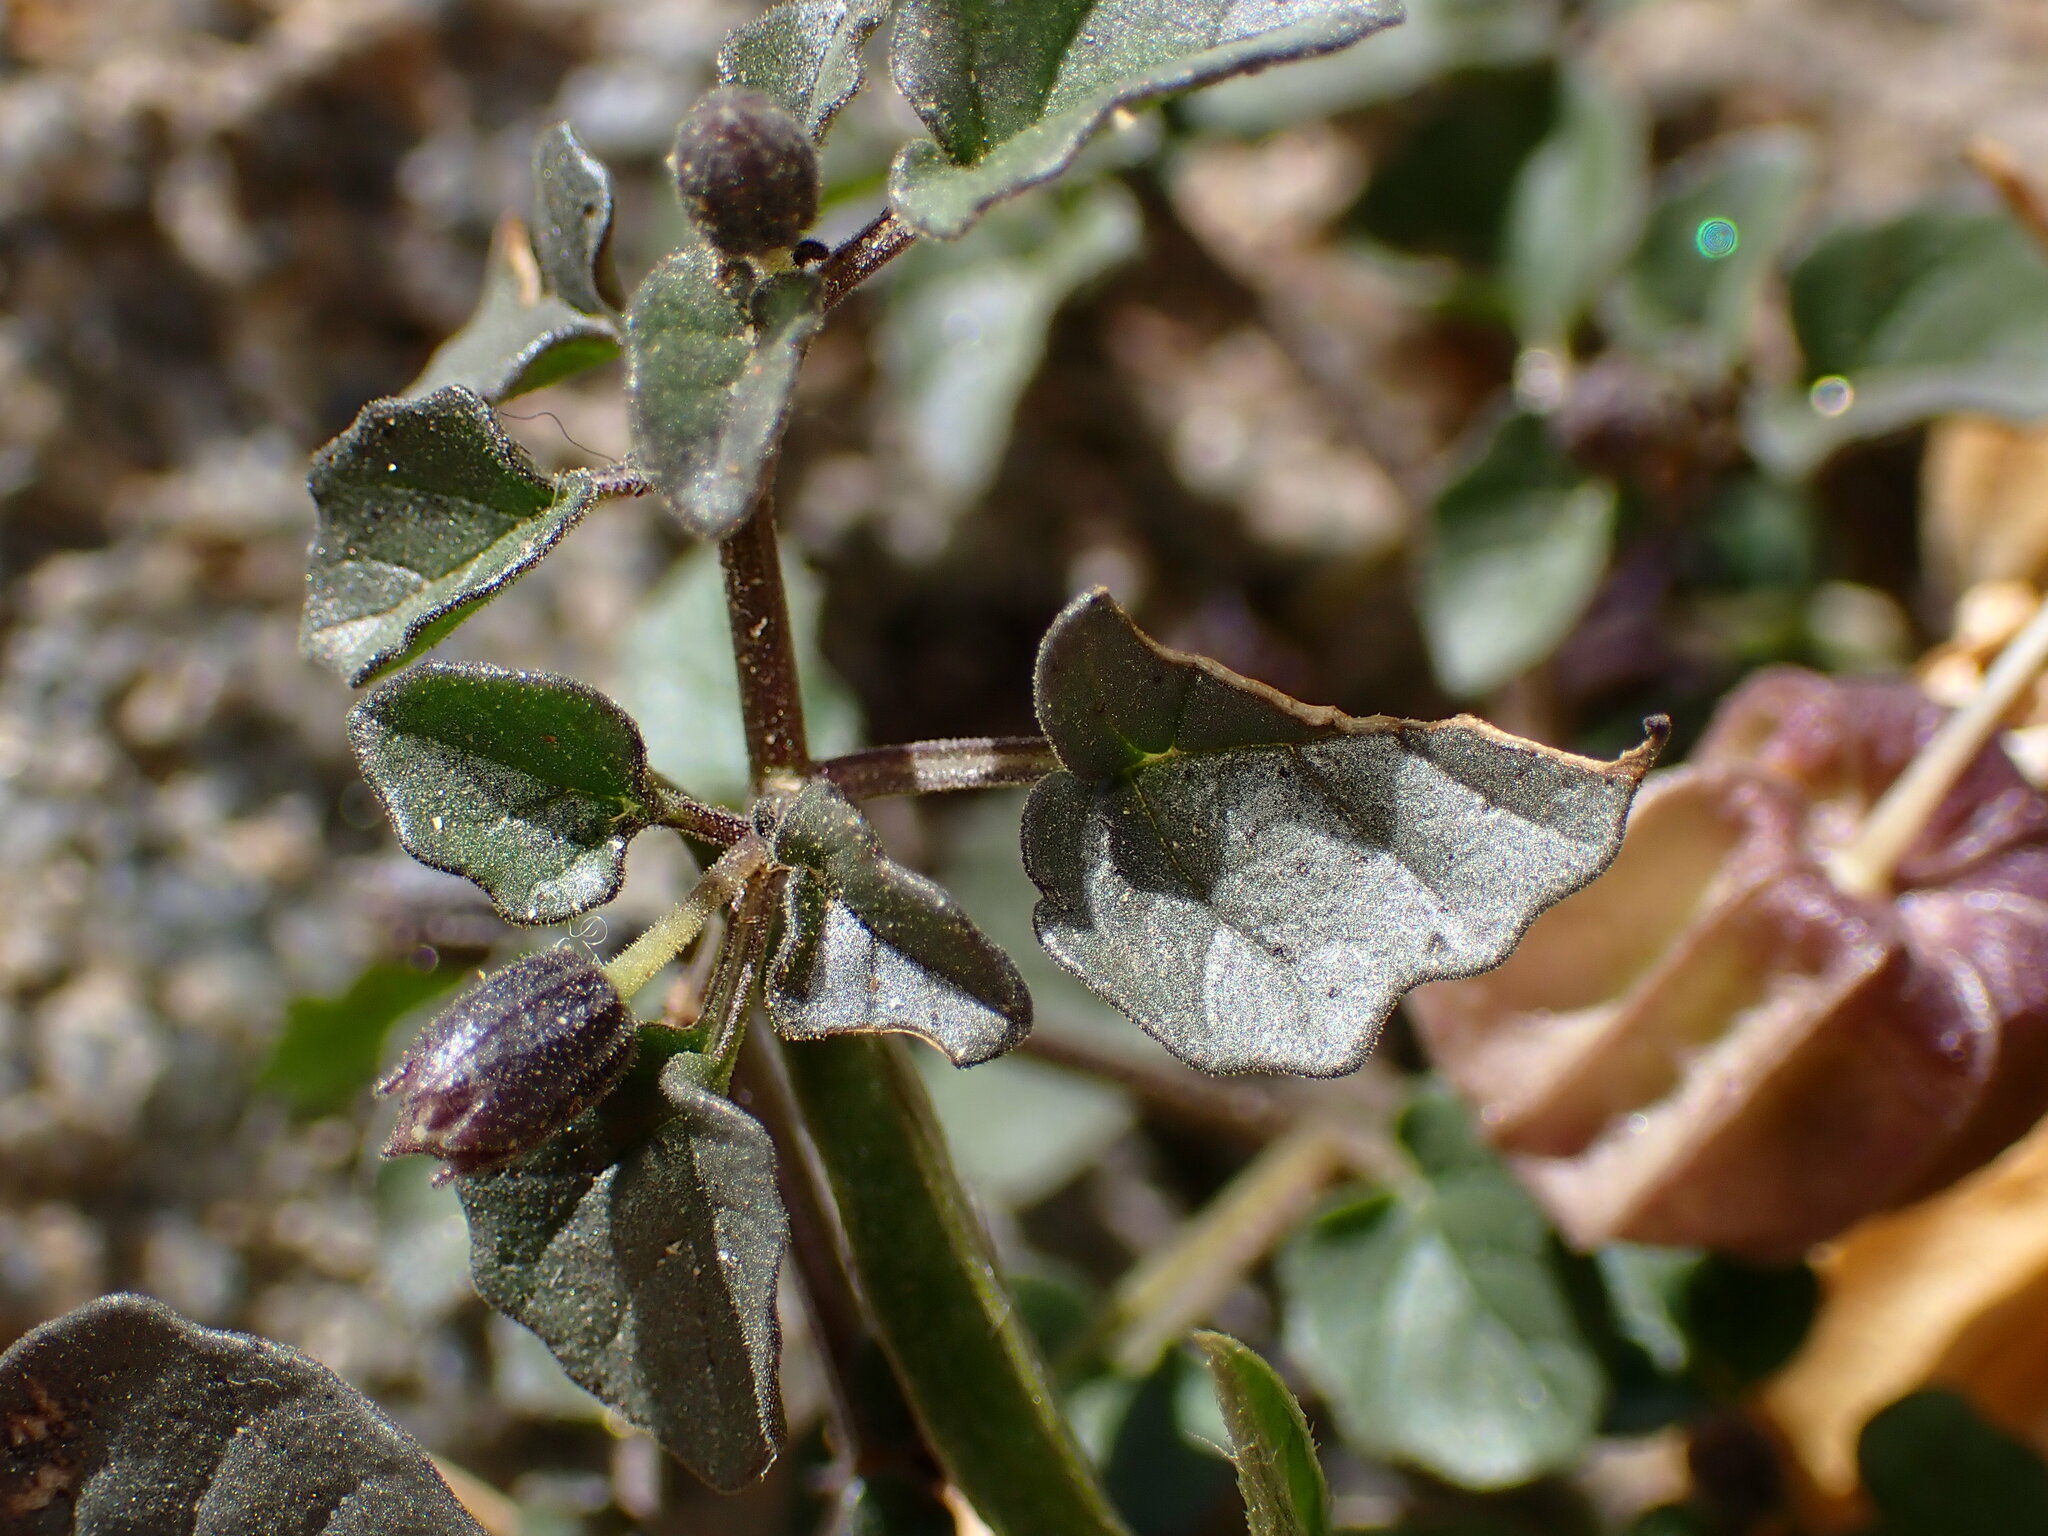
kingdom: Plantae
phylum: Tracheophyta
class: Magnoliopsida
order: Solanales
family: Solanaceae
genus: Physalis
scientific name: Physalis crassifolia
